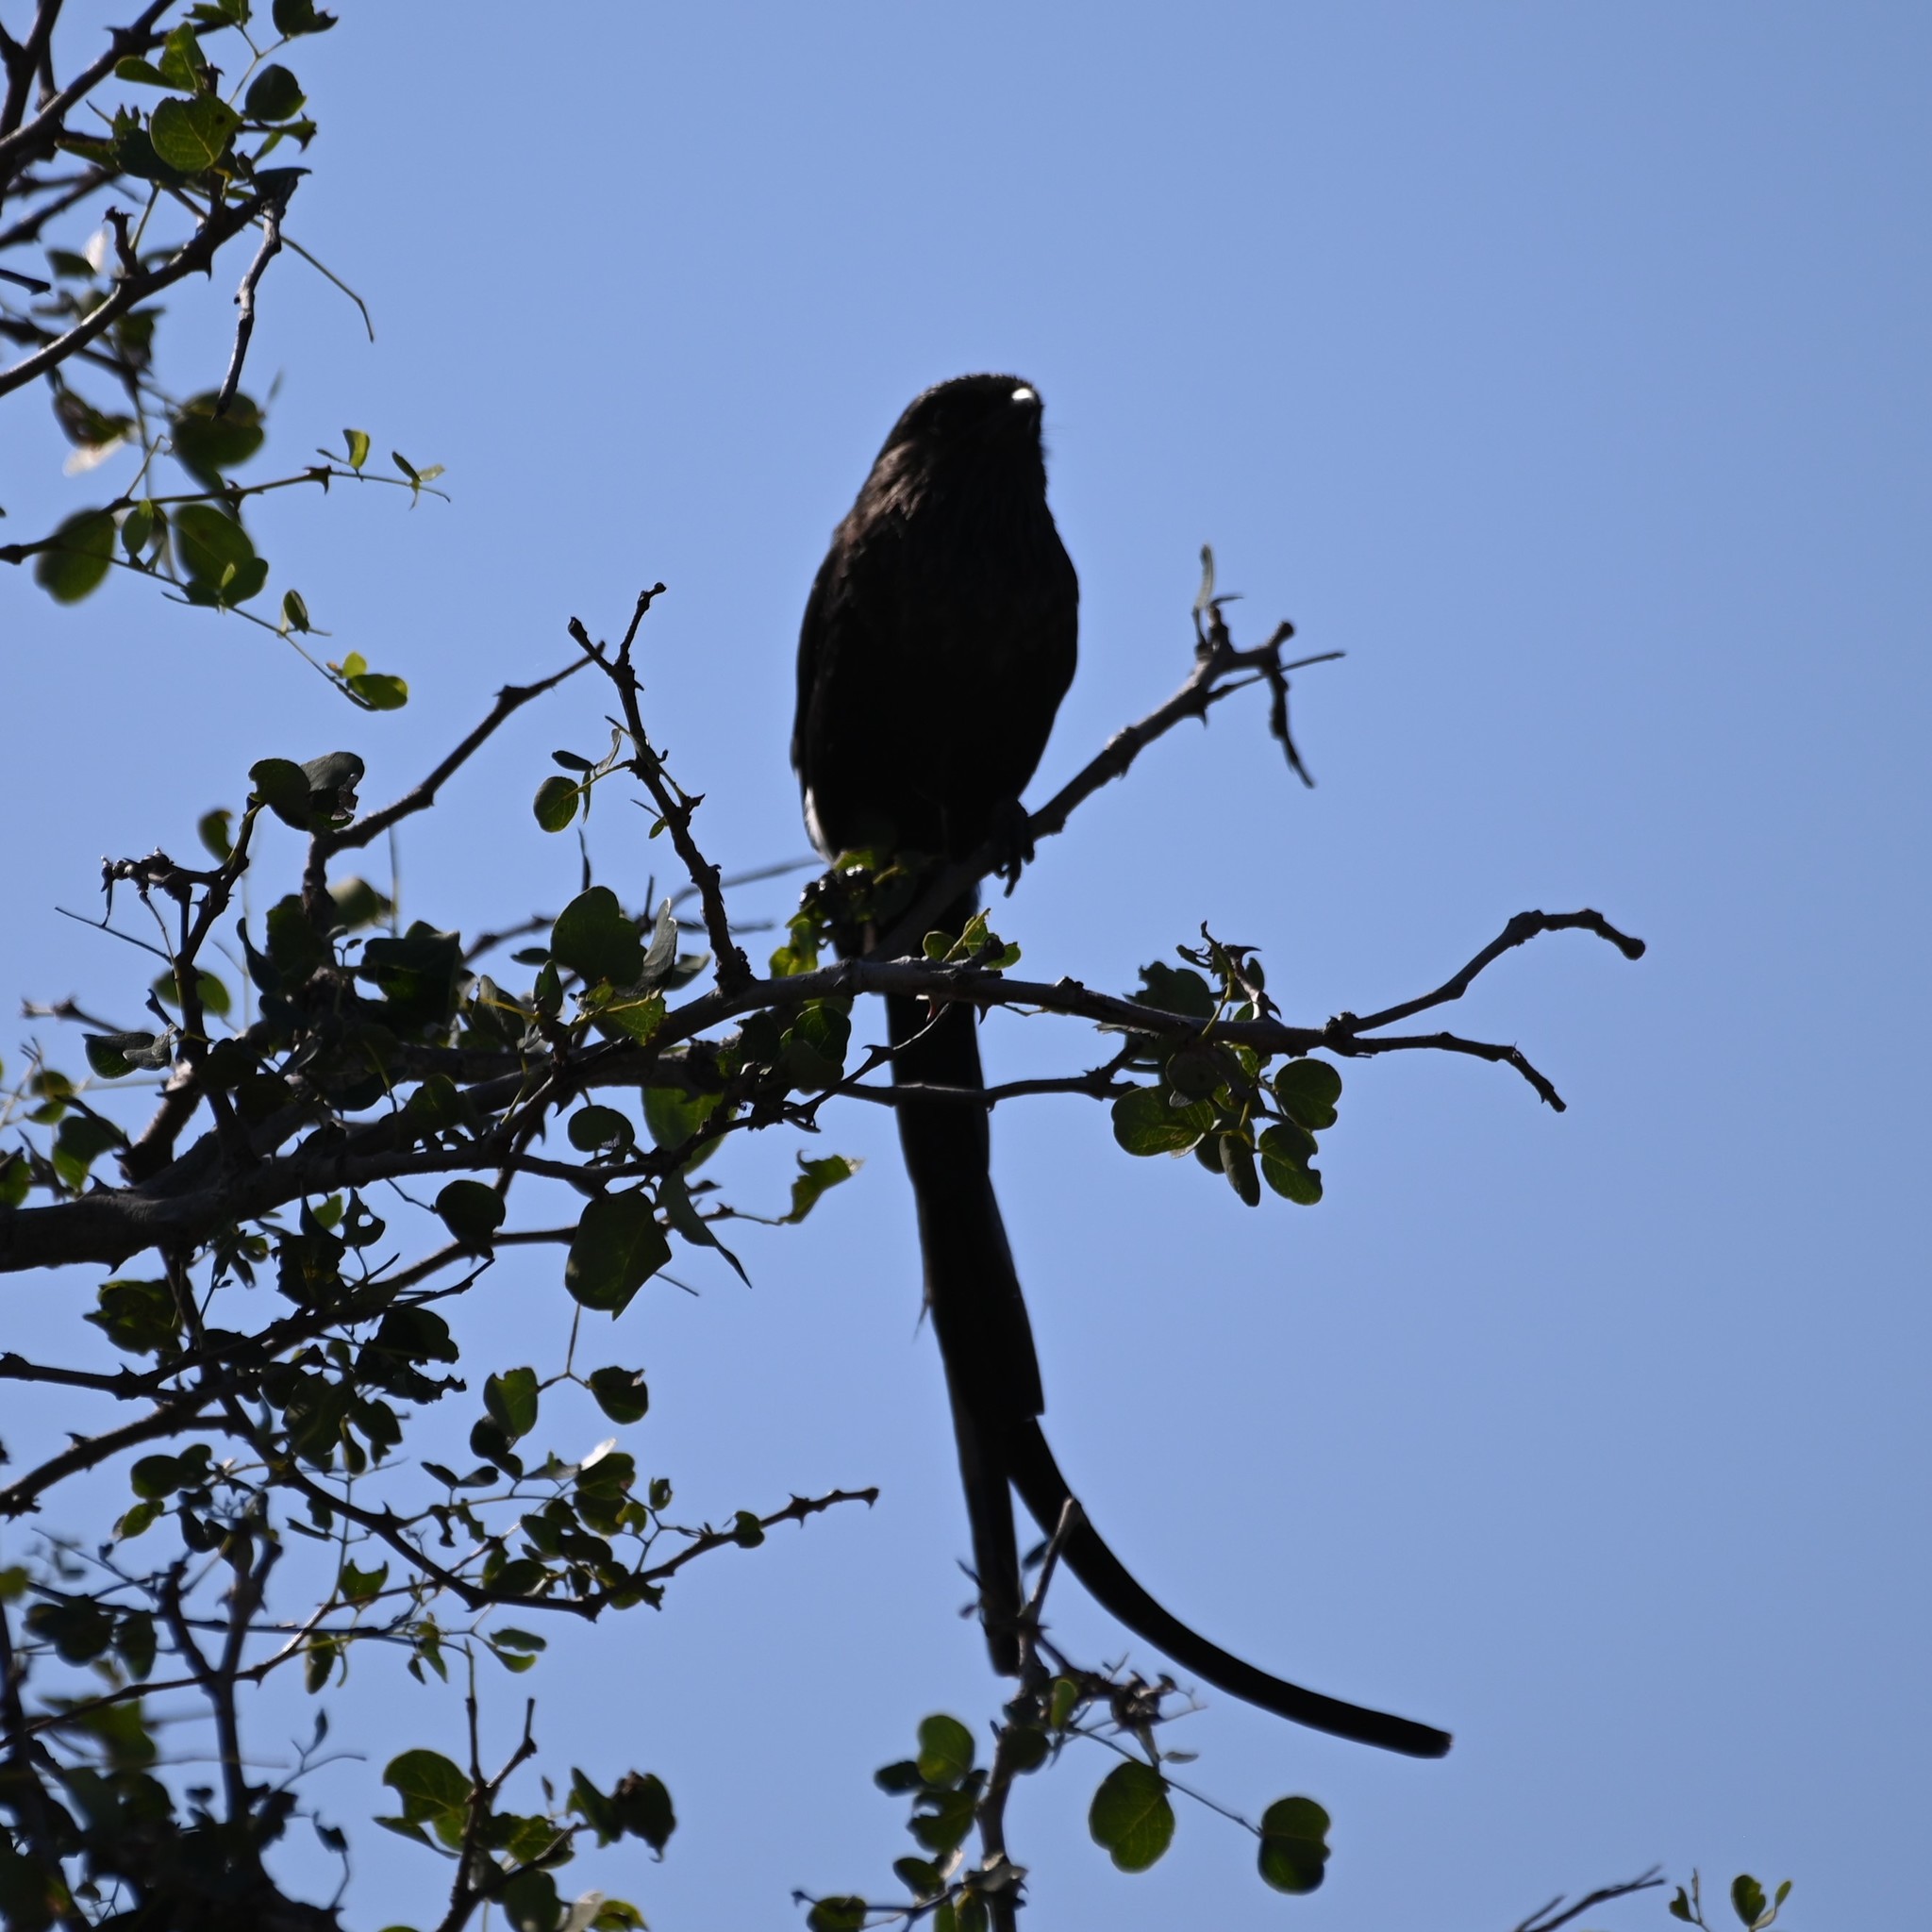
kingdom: Animalia
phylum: Chordata
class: Aves
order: Passeriformes
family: Laniidae
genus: Urolestes
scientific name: Urolestes melanoleucus
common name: Magpie shrike
